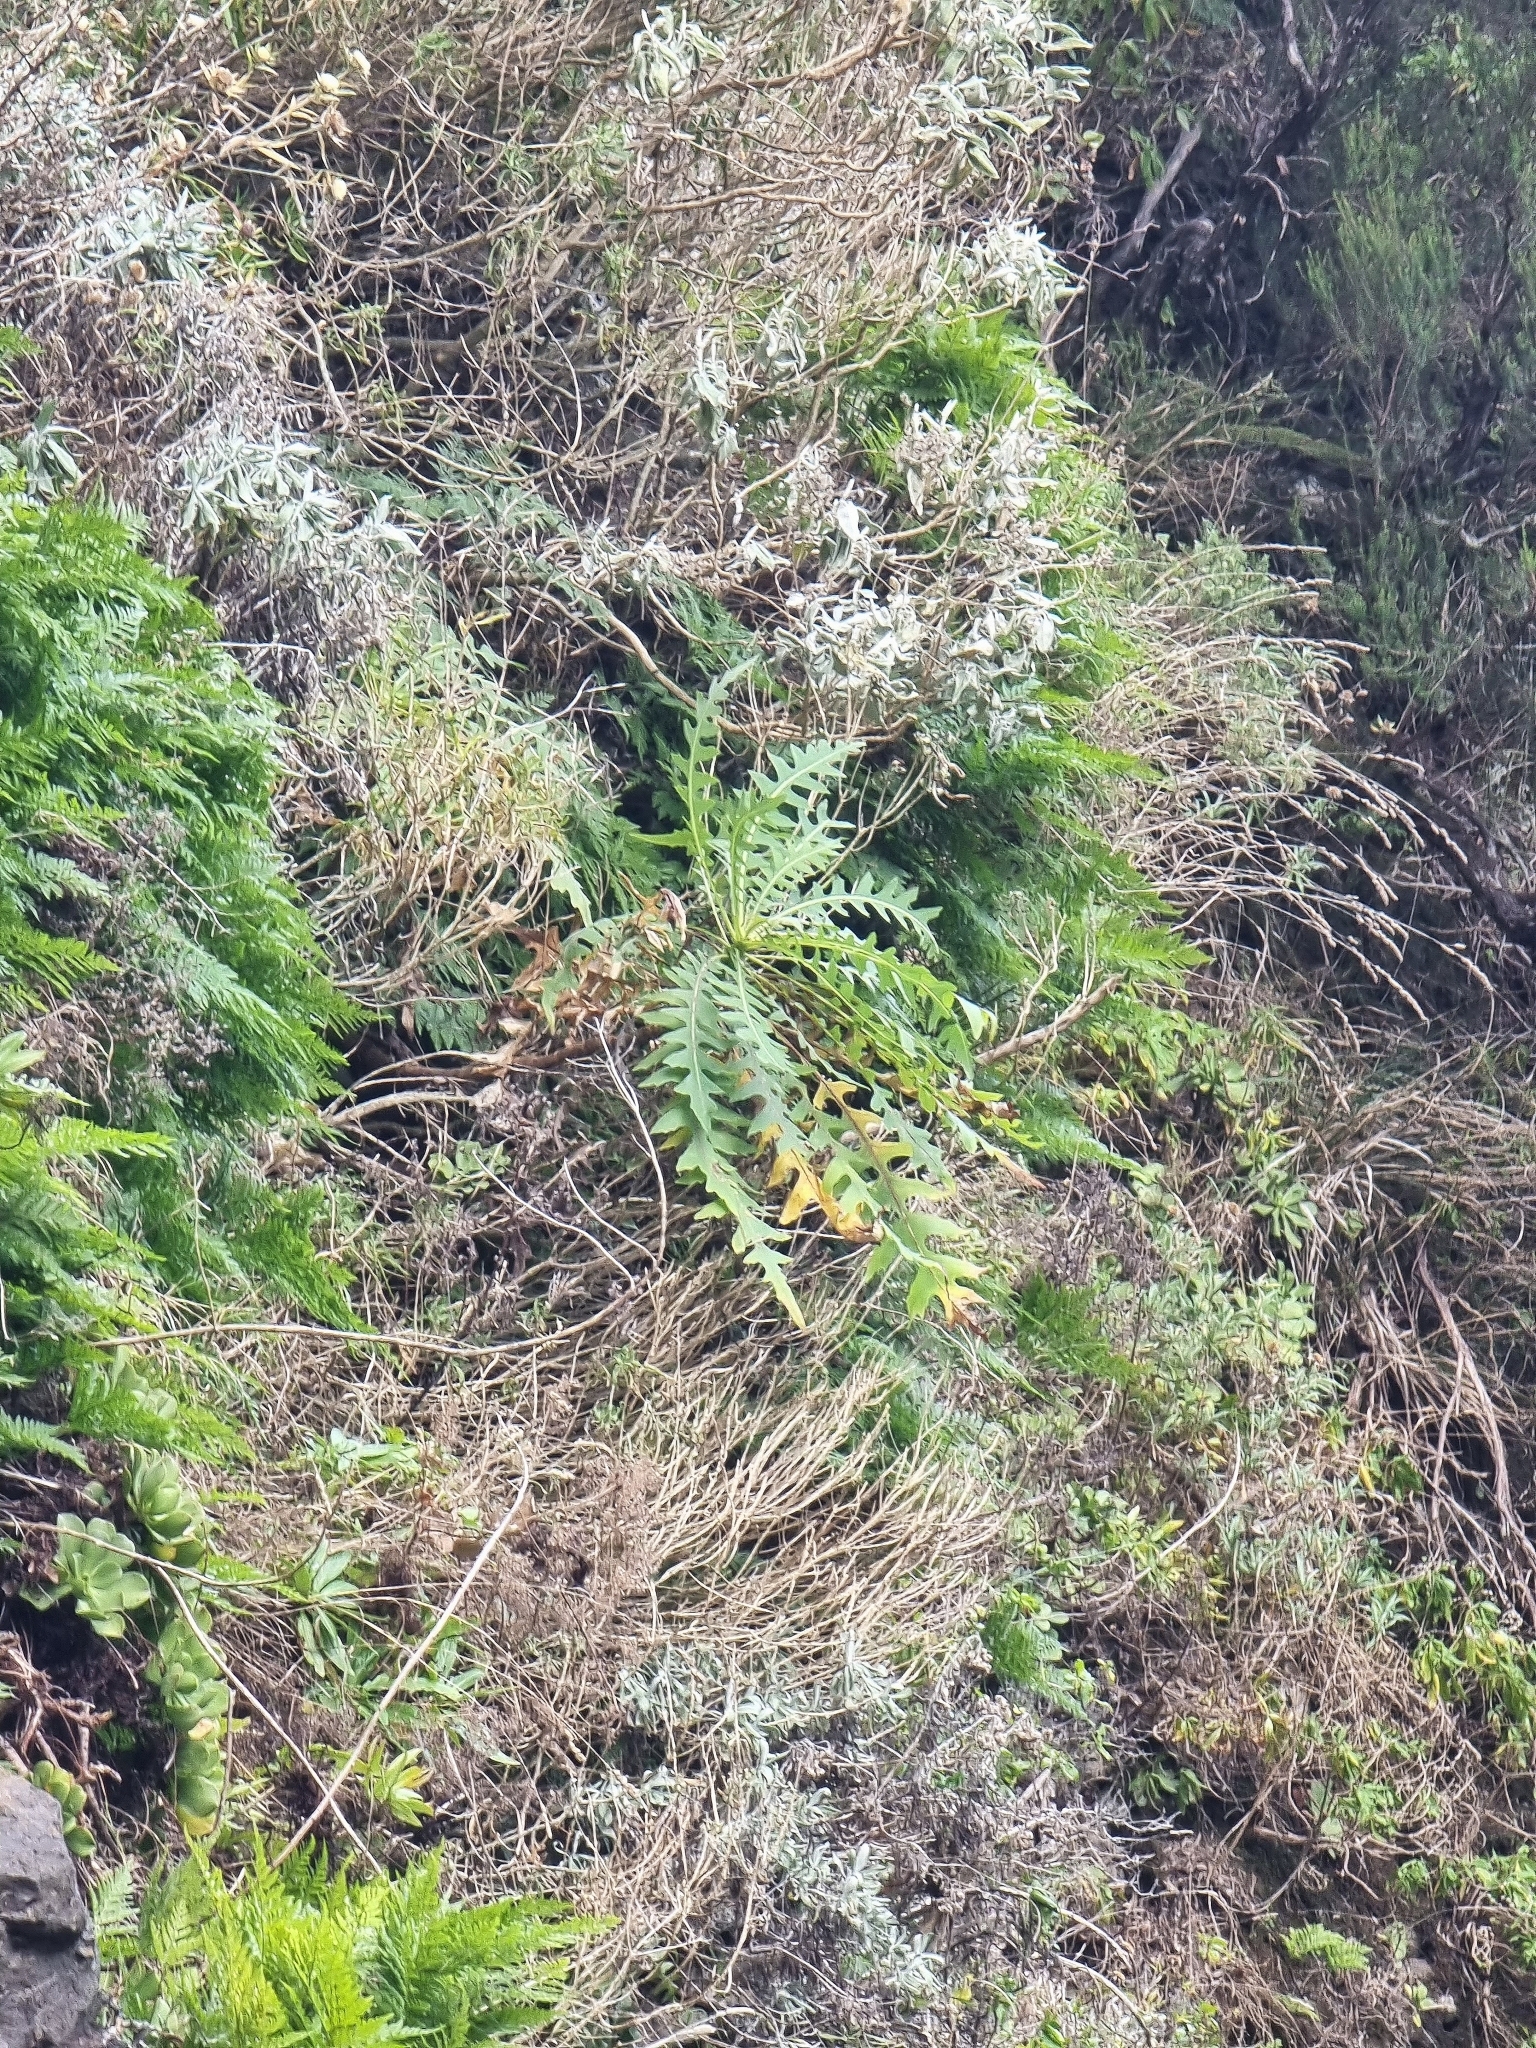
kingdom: Plantae
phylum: Tracheophyta
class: Magnoliopsida
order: Asterales
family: Asteraceae
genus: Sonchus
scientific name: Sonchus pinnatus
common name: Wing-leaved sow-thistle
